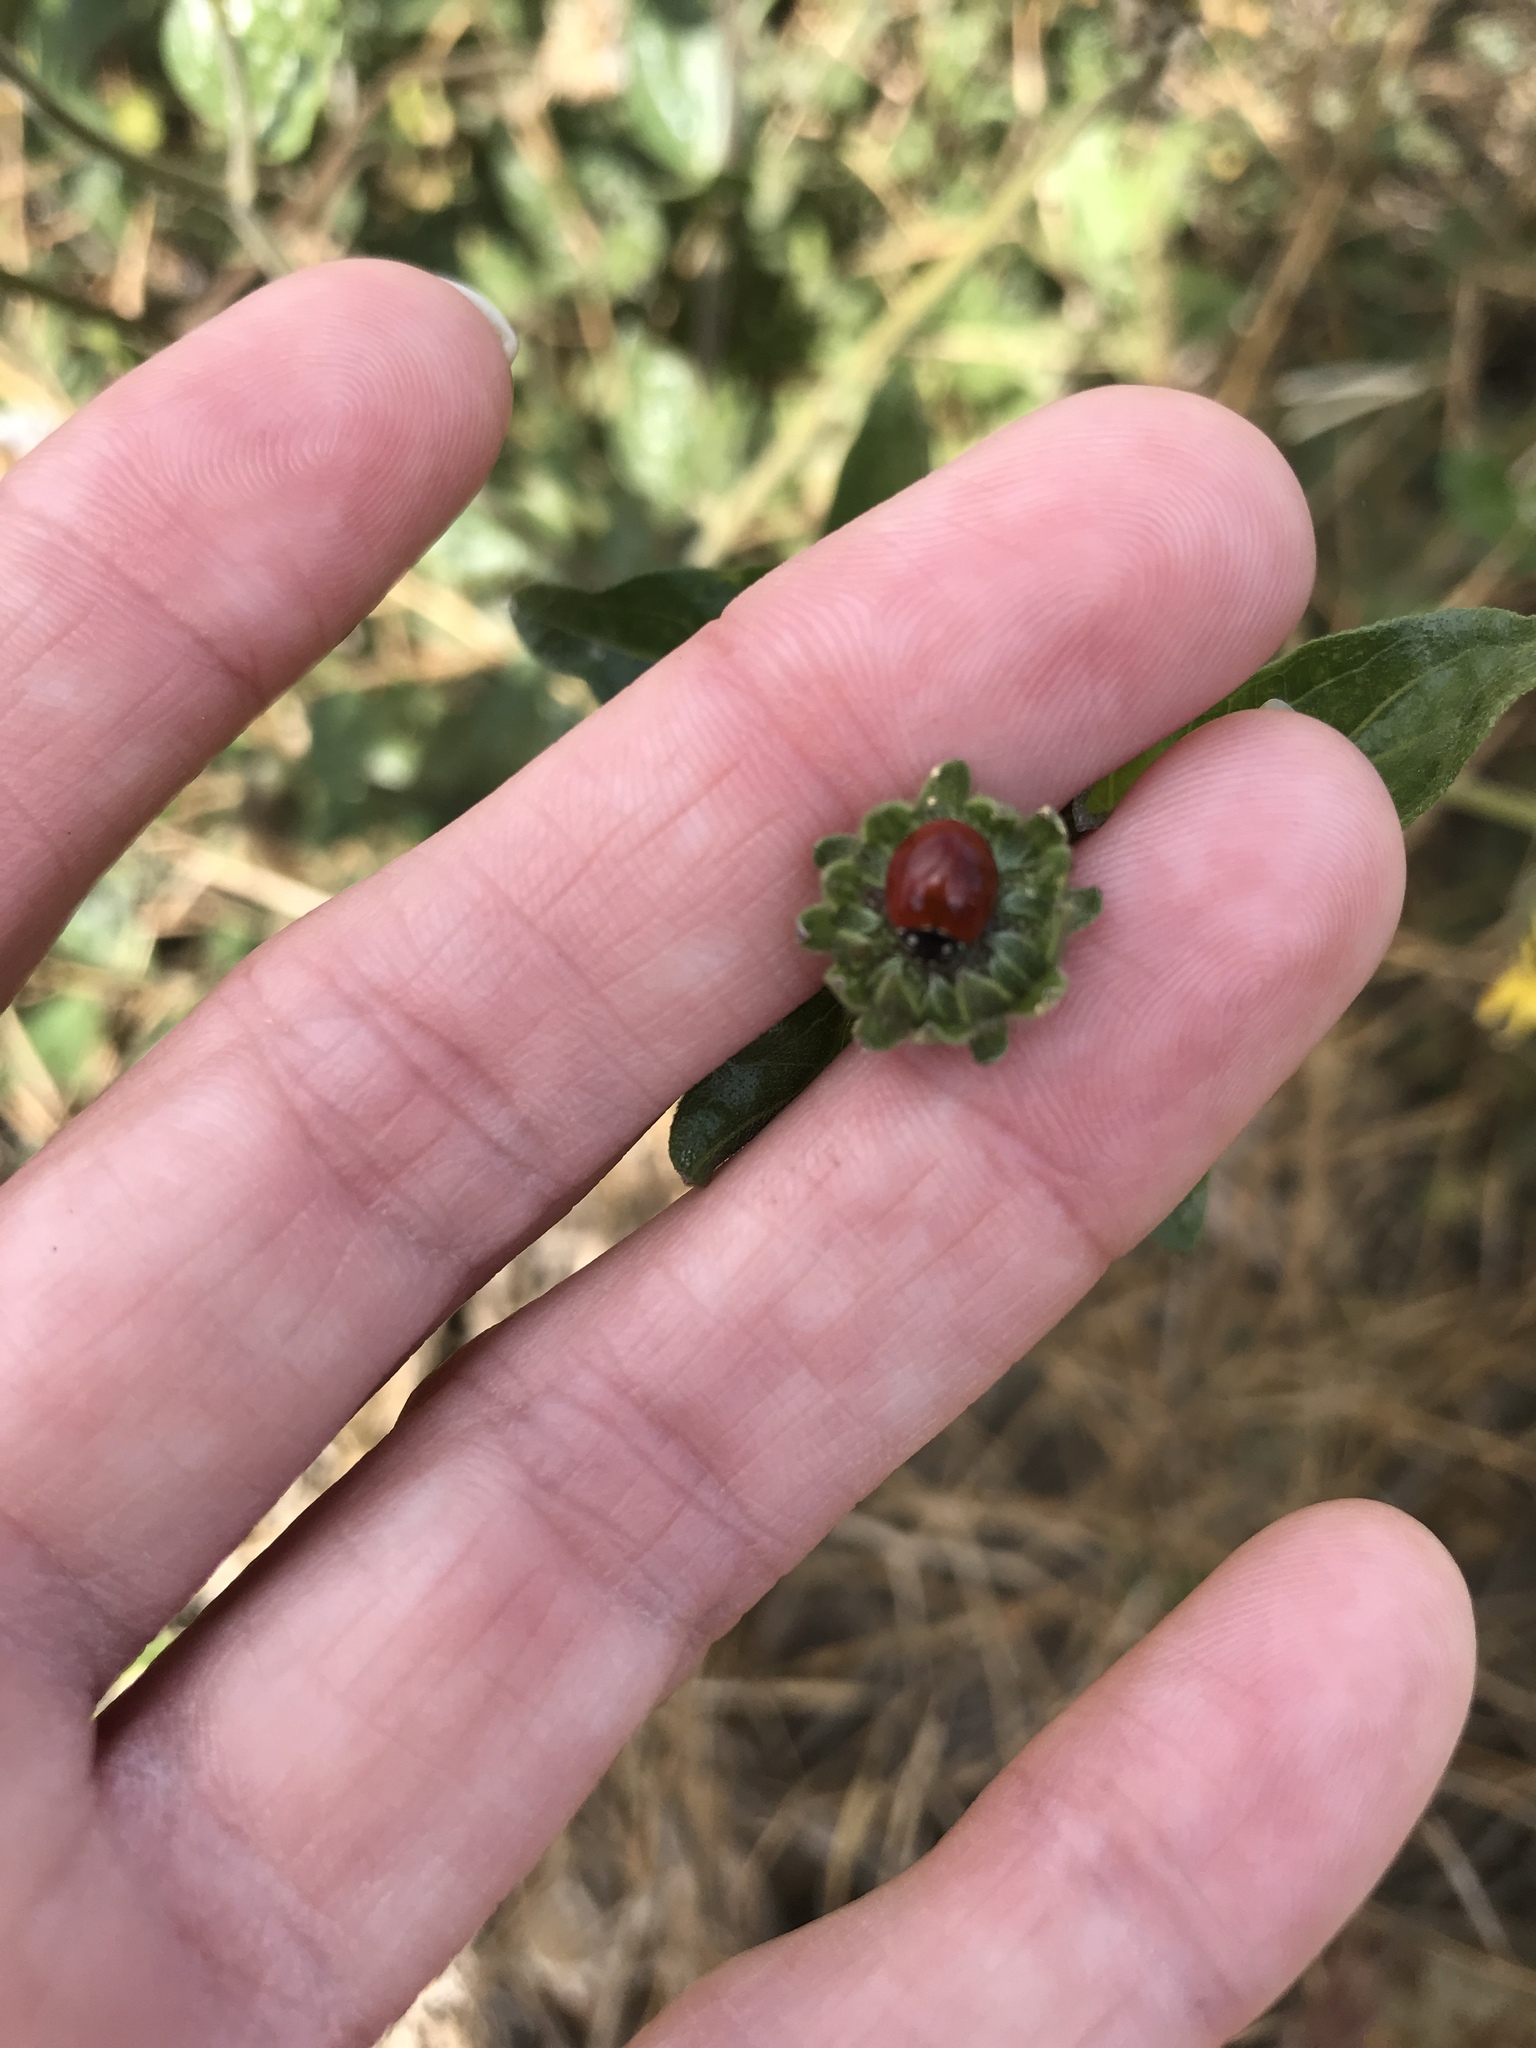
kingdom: Animalia
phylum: Arthropoda
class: Insecta
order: Coleoptera
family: Coccinellidae
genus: Cycloneda
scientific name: Cycloneda sanguinea
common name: Ladybird beetle
